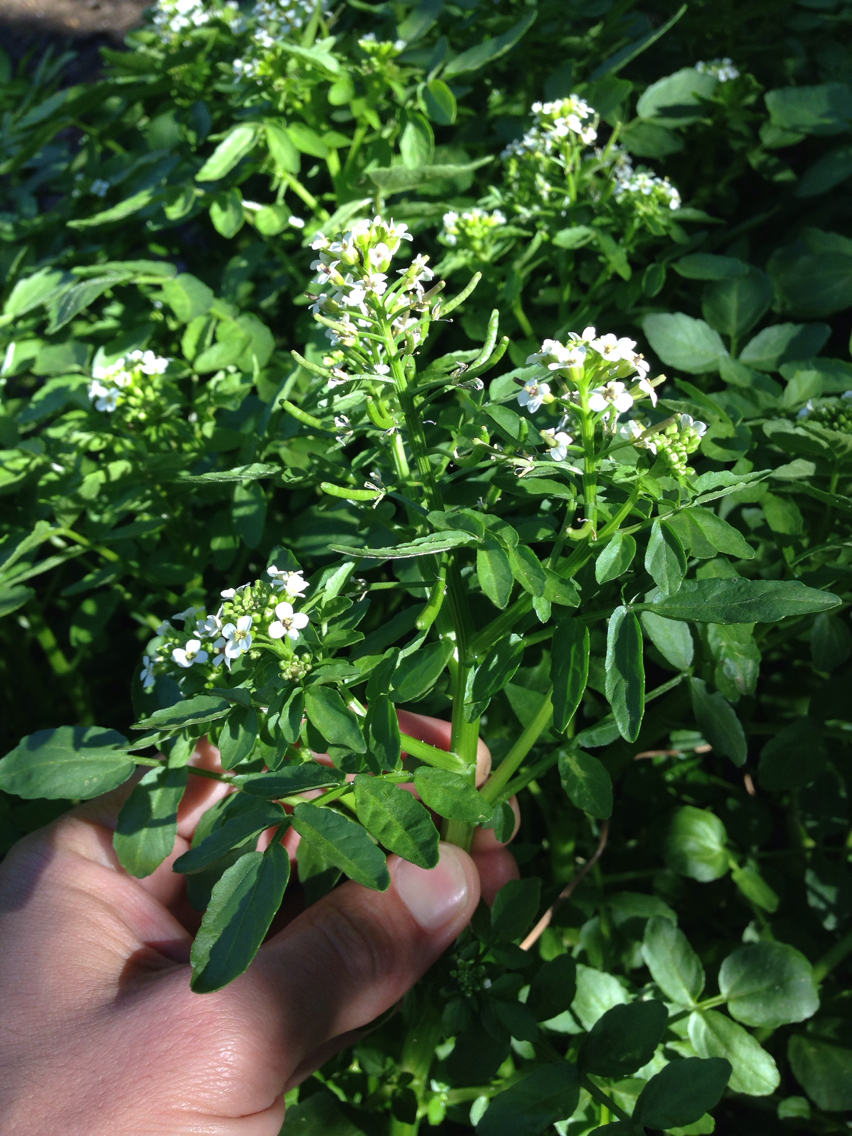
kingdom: Plantae
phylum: Tracheophyta
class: Magnoliopsida
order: Brassicales
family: Brassicaceae
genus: Nasturtium
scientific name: Nasturtium officinale
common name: Watercress
